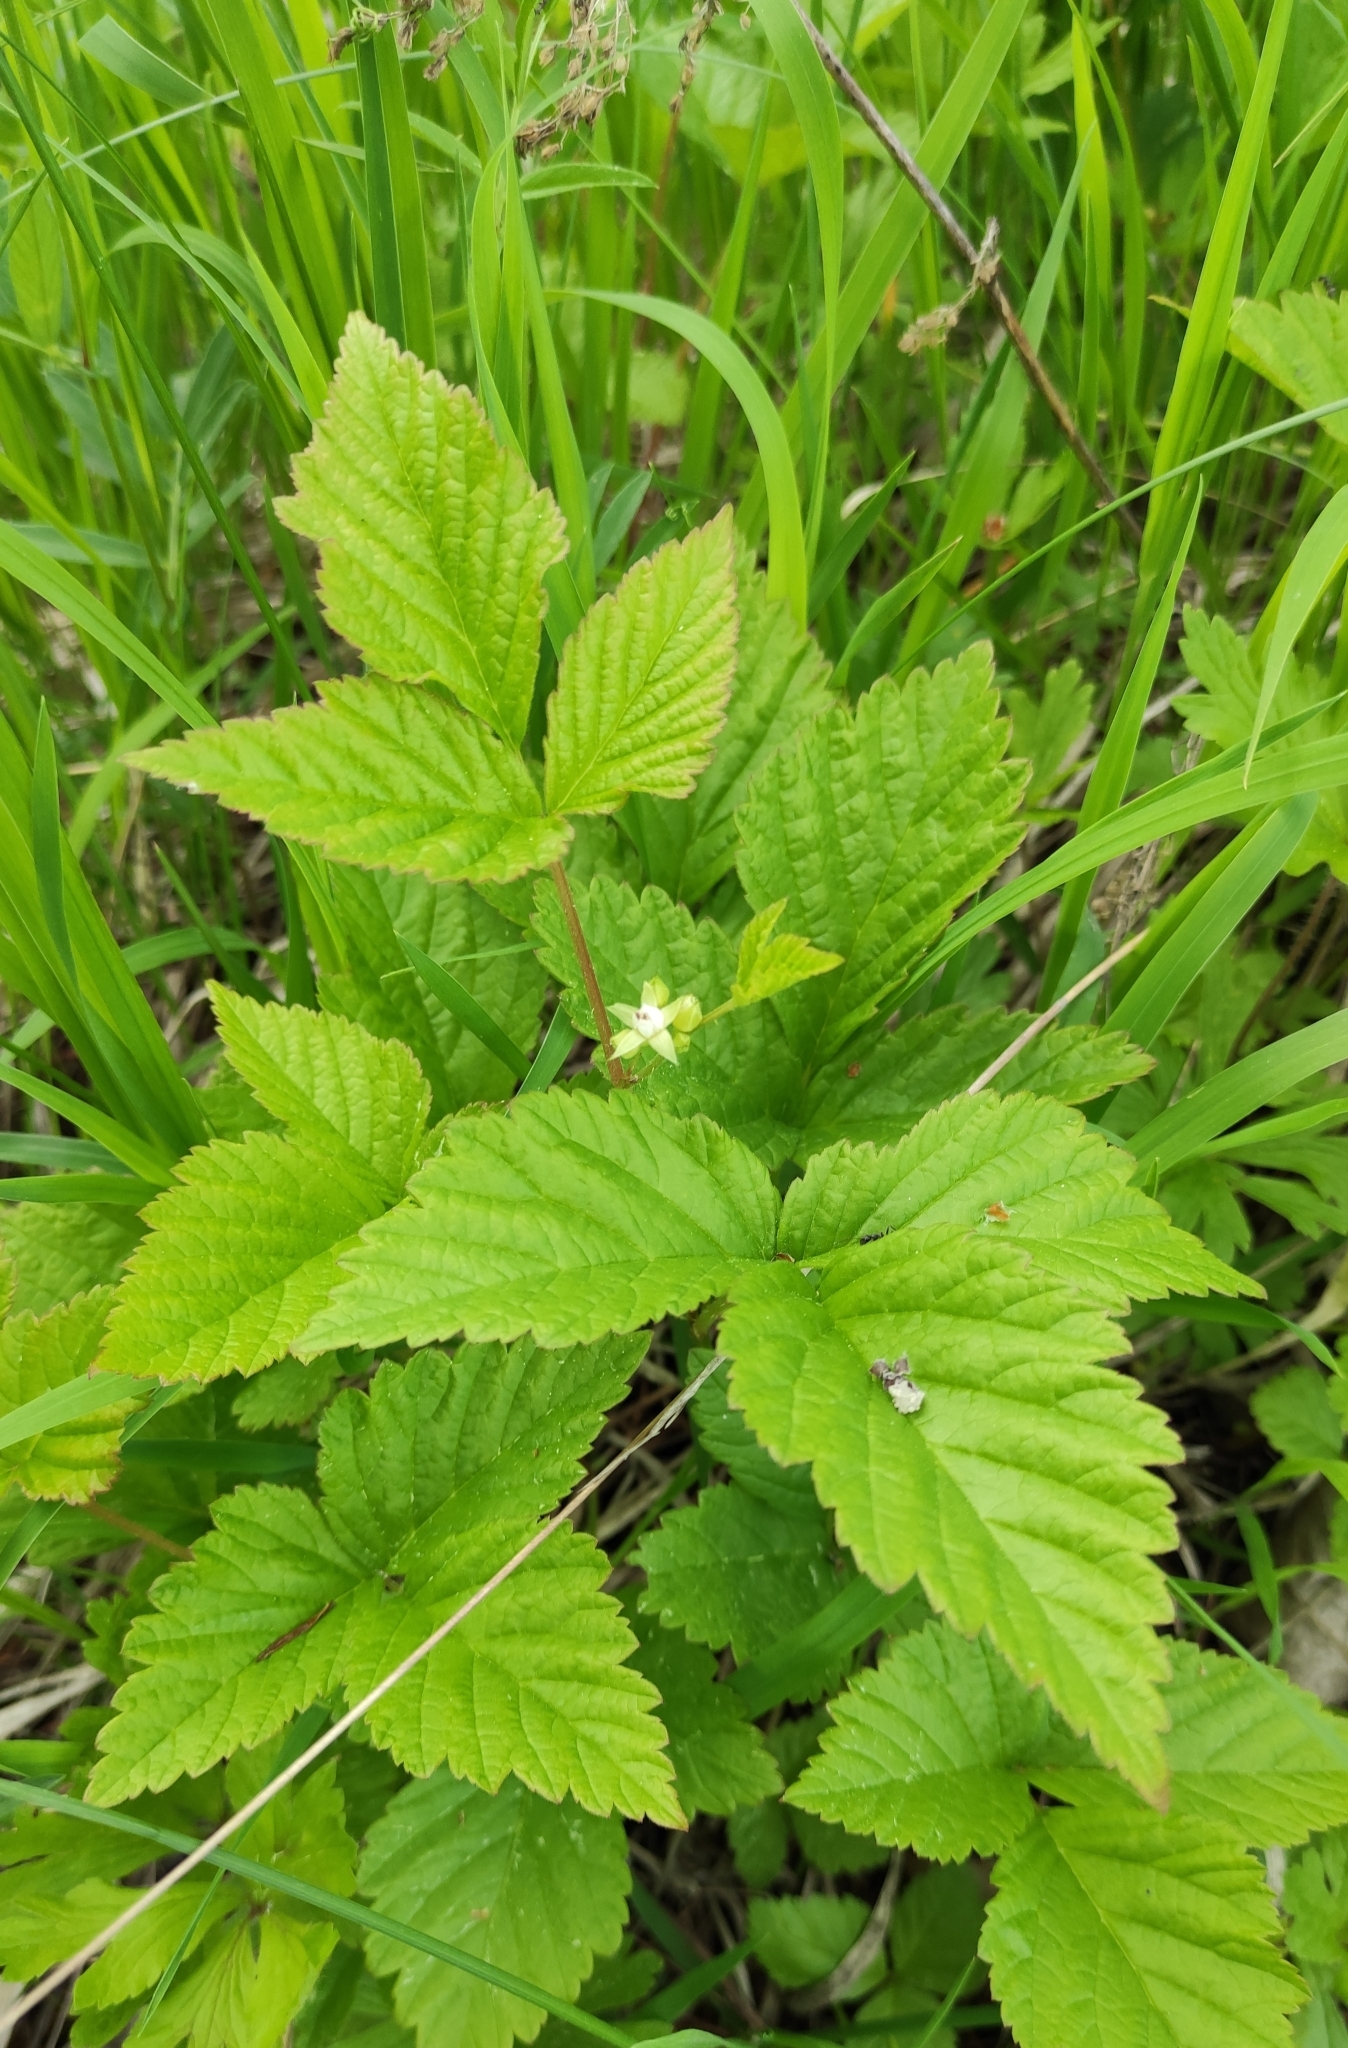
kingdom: Plantae
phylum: Tracheophyta
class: Magnoliopsida
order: Rosales
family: Rosaceae
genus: Rubus
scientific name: Rubus saxatilis
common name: Stone bramble
